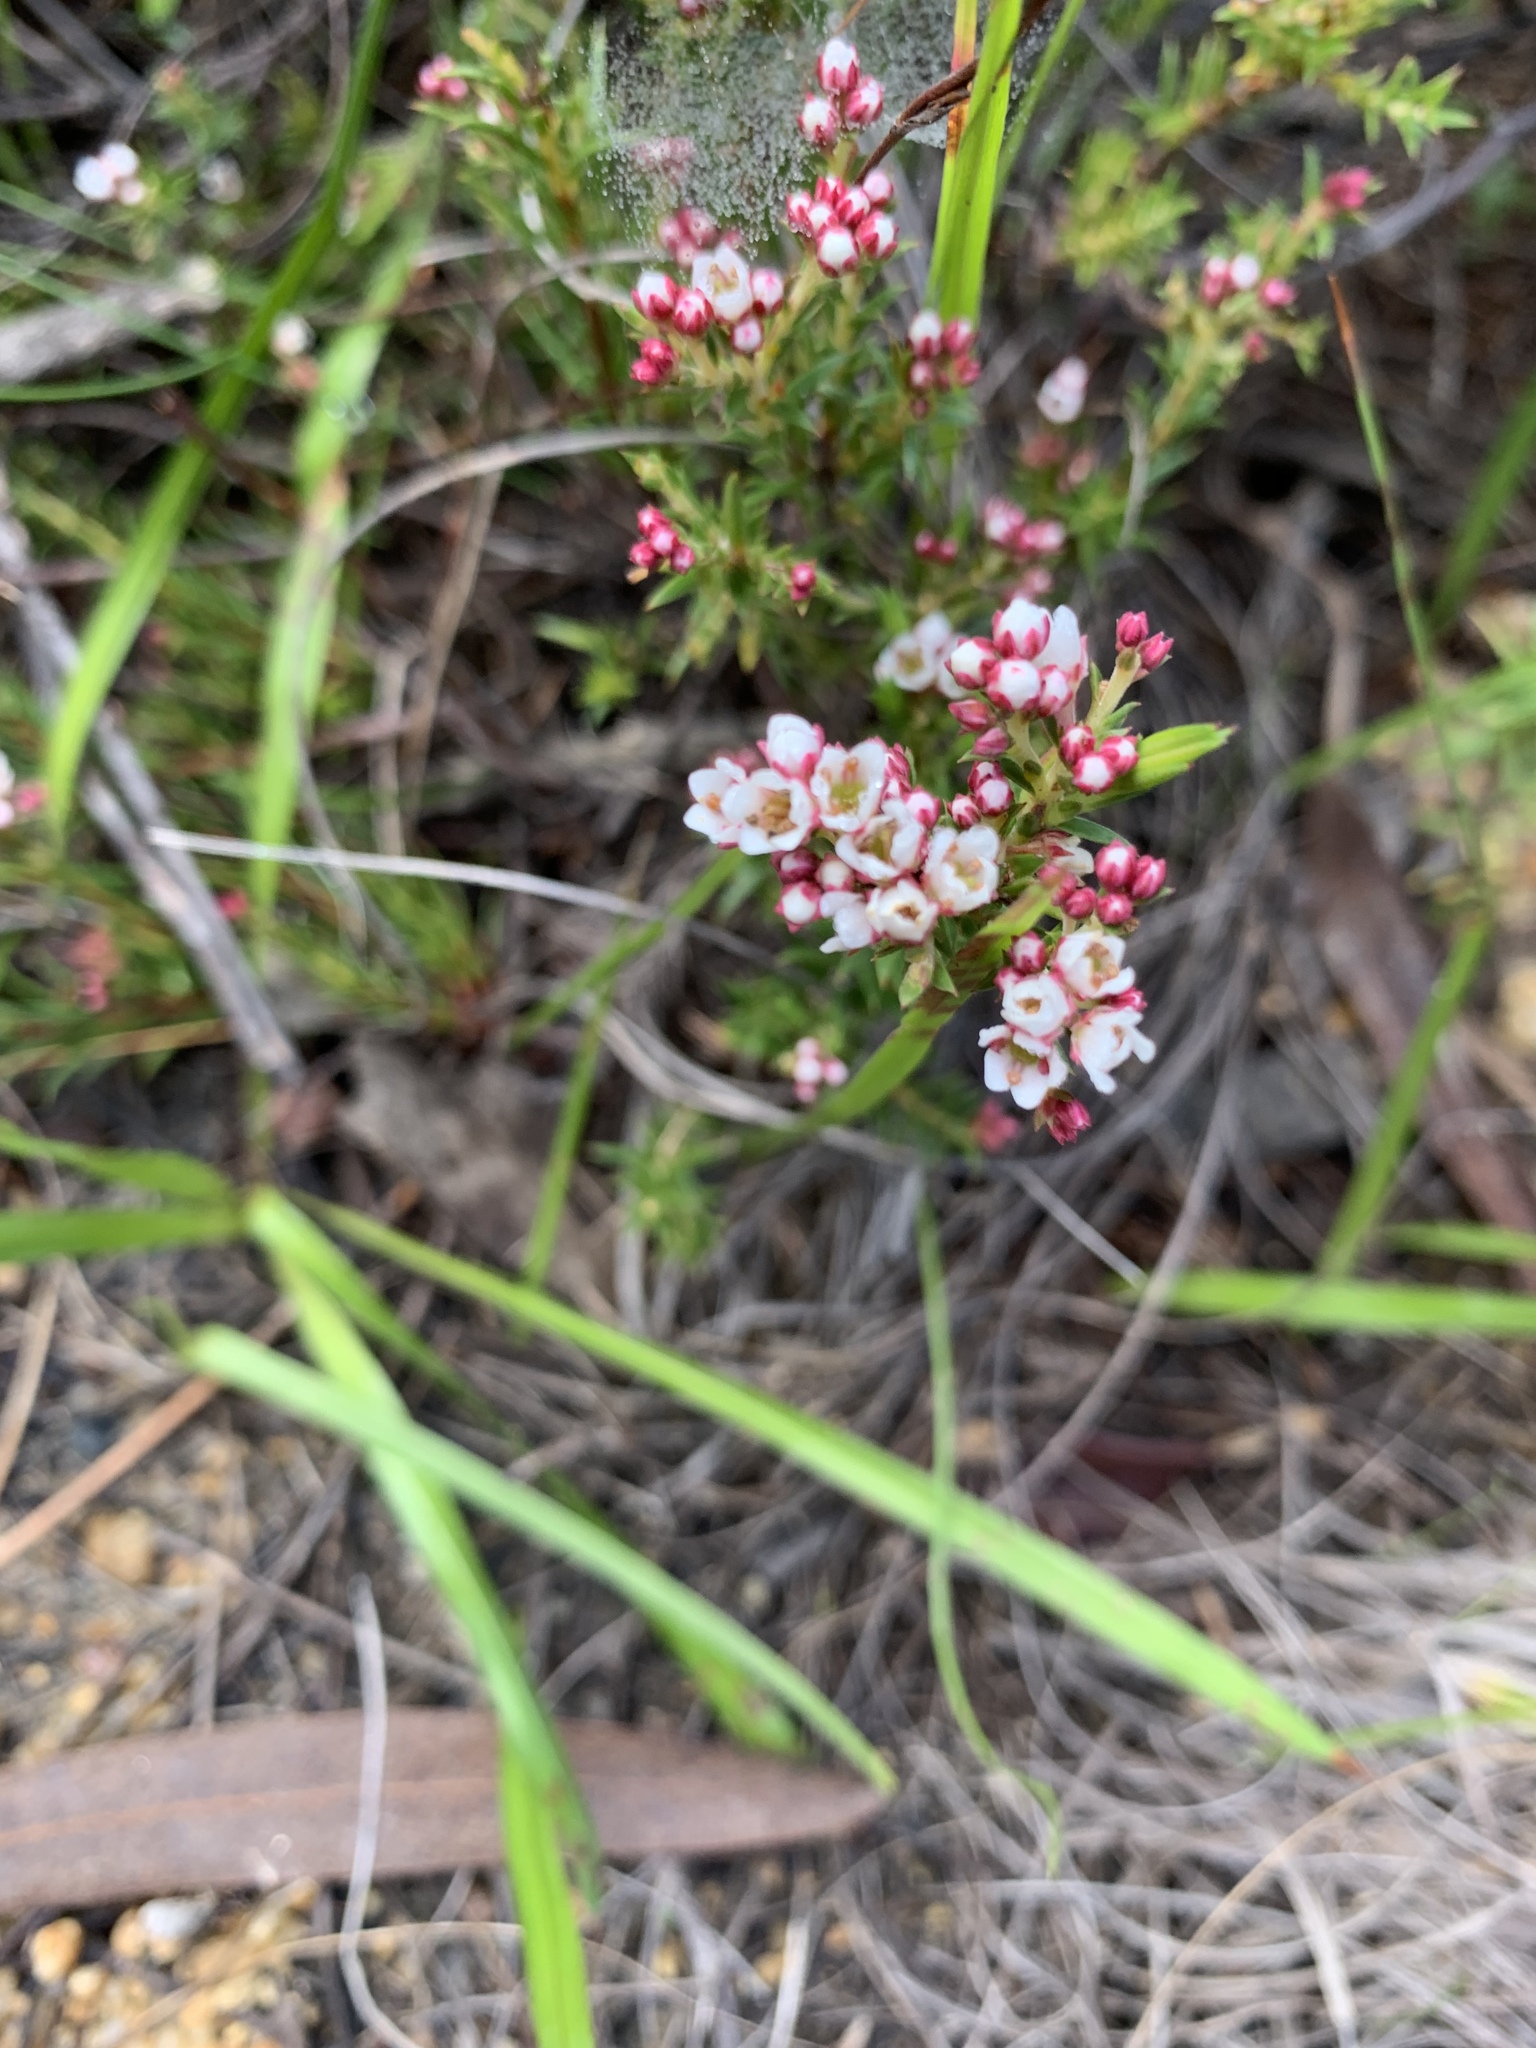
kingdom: Plantae
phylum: Tracheophyta
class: Magnoliopsida
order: Sapindales
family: Rutaceae
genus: Diosma
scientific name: Diosma hirsuta
